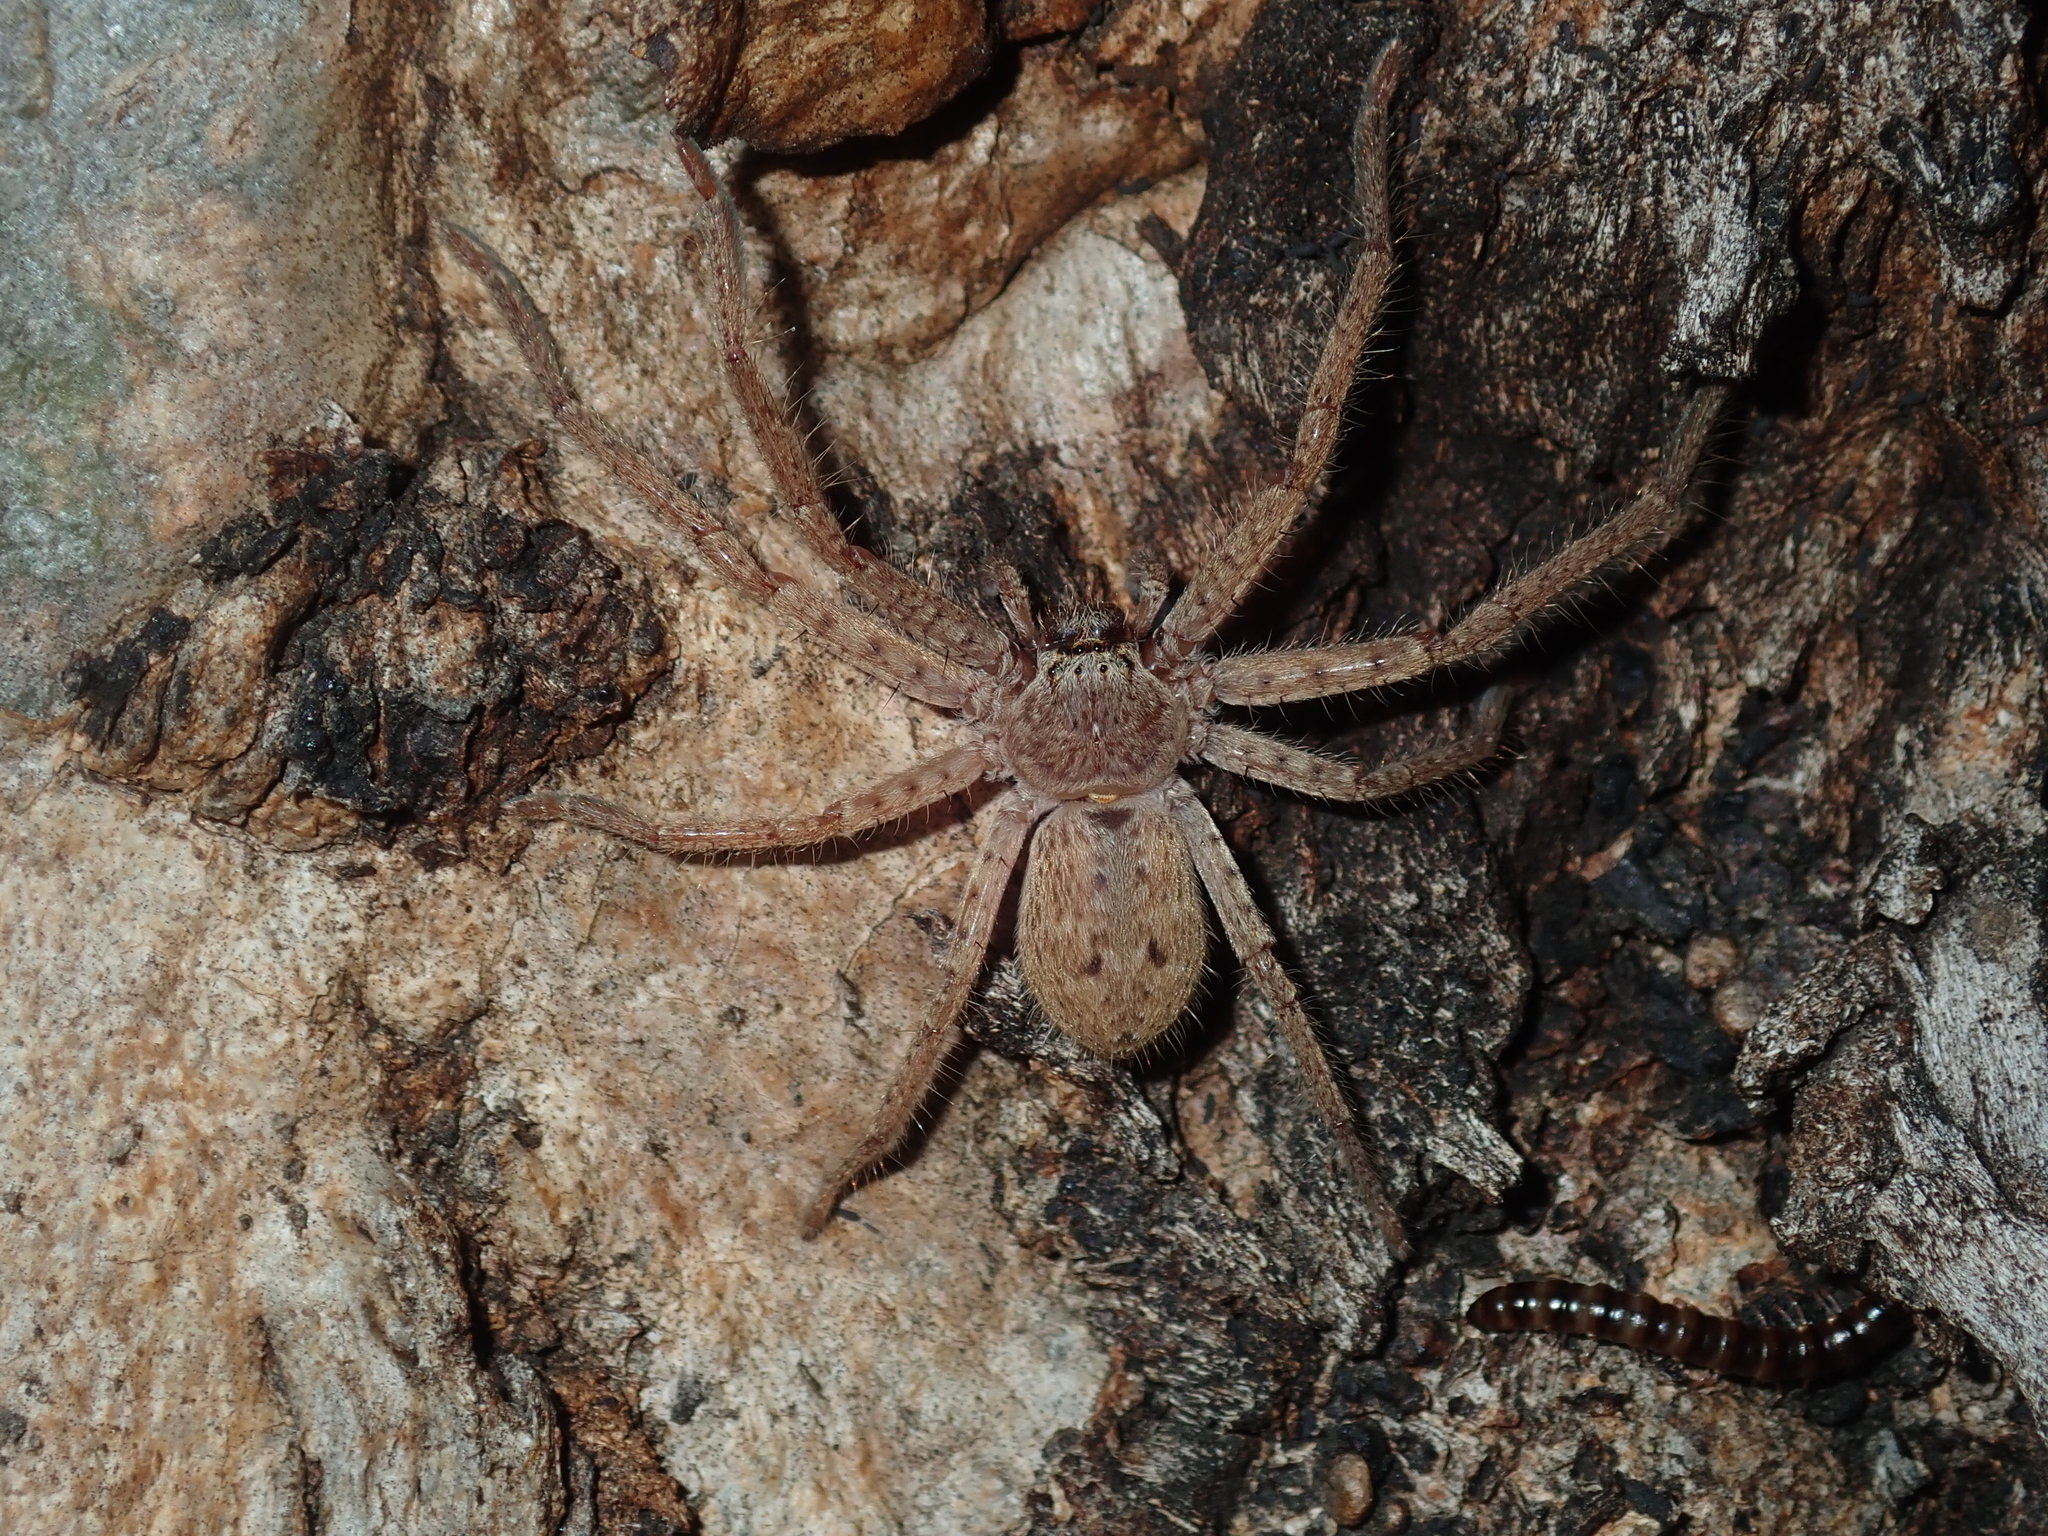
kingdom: Animalia
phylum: Arthropoda
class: Arachnida
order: Araneae
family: Sparassidae
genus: Isopeda
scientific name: Isopeda villosa
